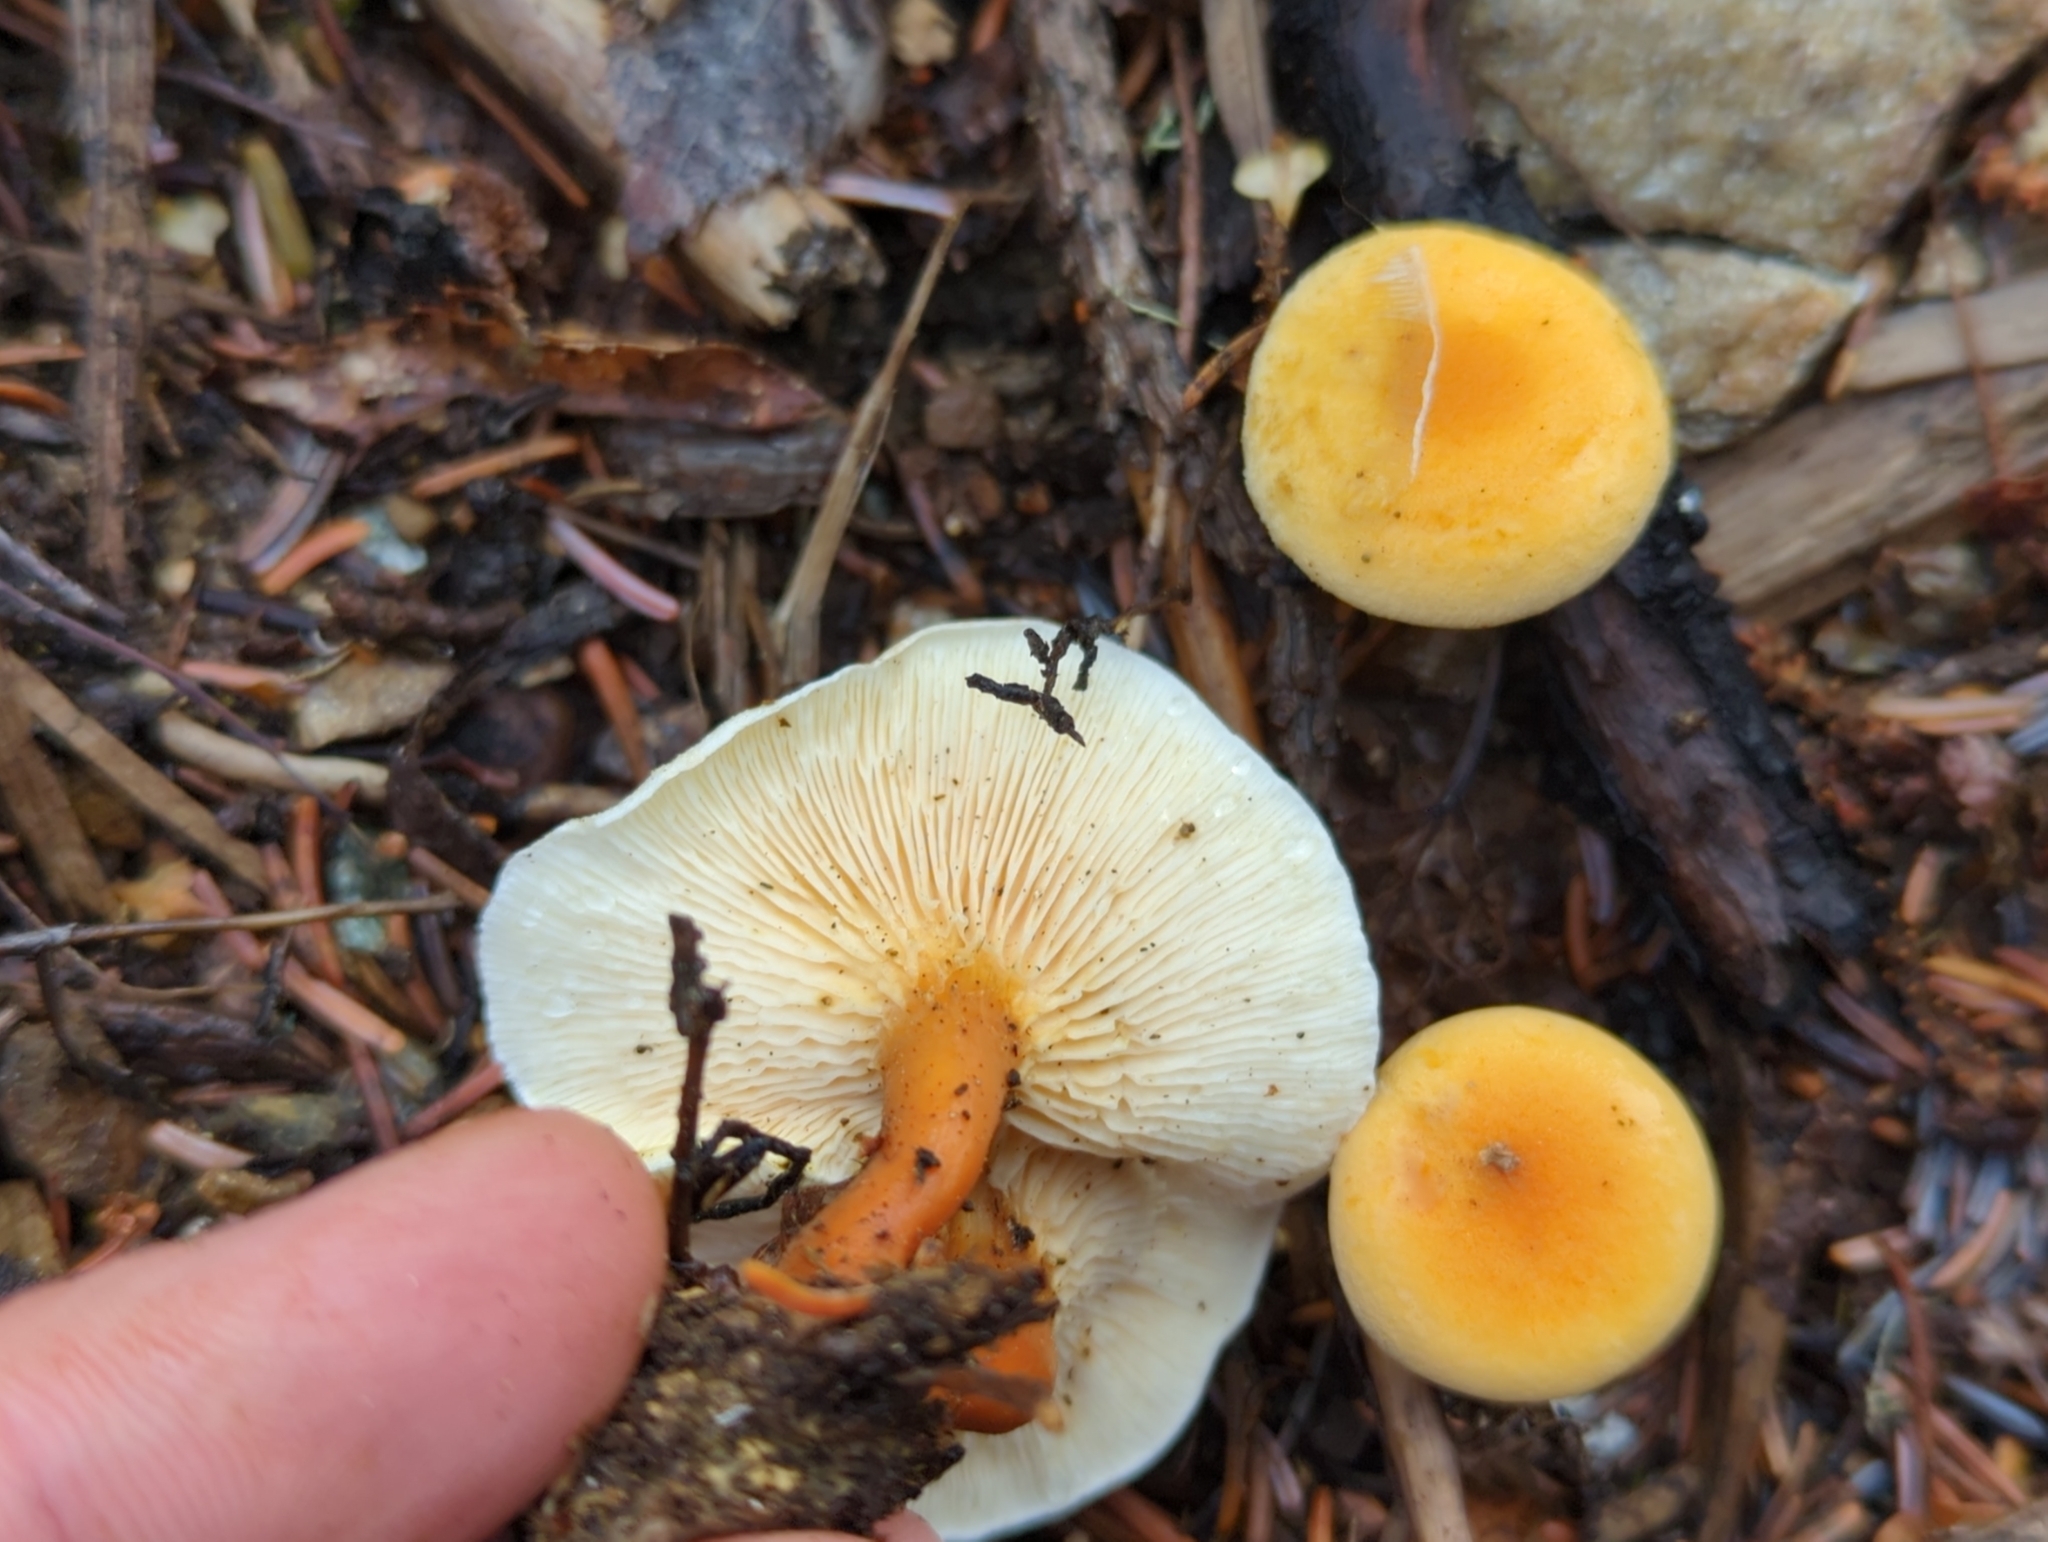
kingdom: Fungi
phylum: Basidiomycota
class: Agaricomycetes
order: Boletales
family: Hygrophoropsidaceae
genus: Hygrophoropsis
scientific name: Hygrophoropsis aurantiaca
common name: False chanterelle
